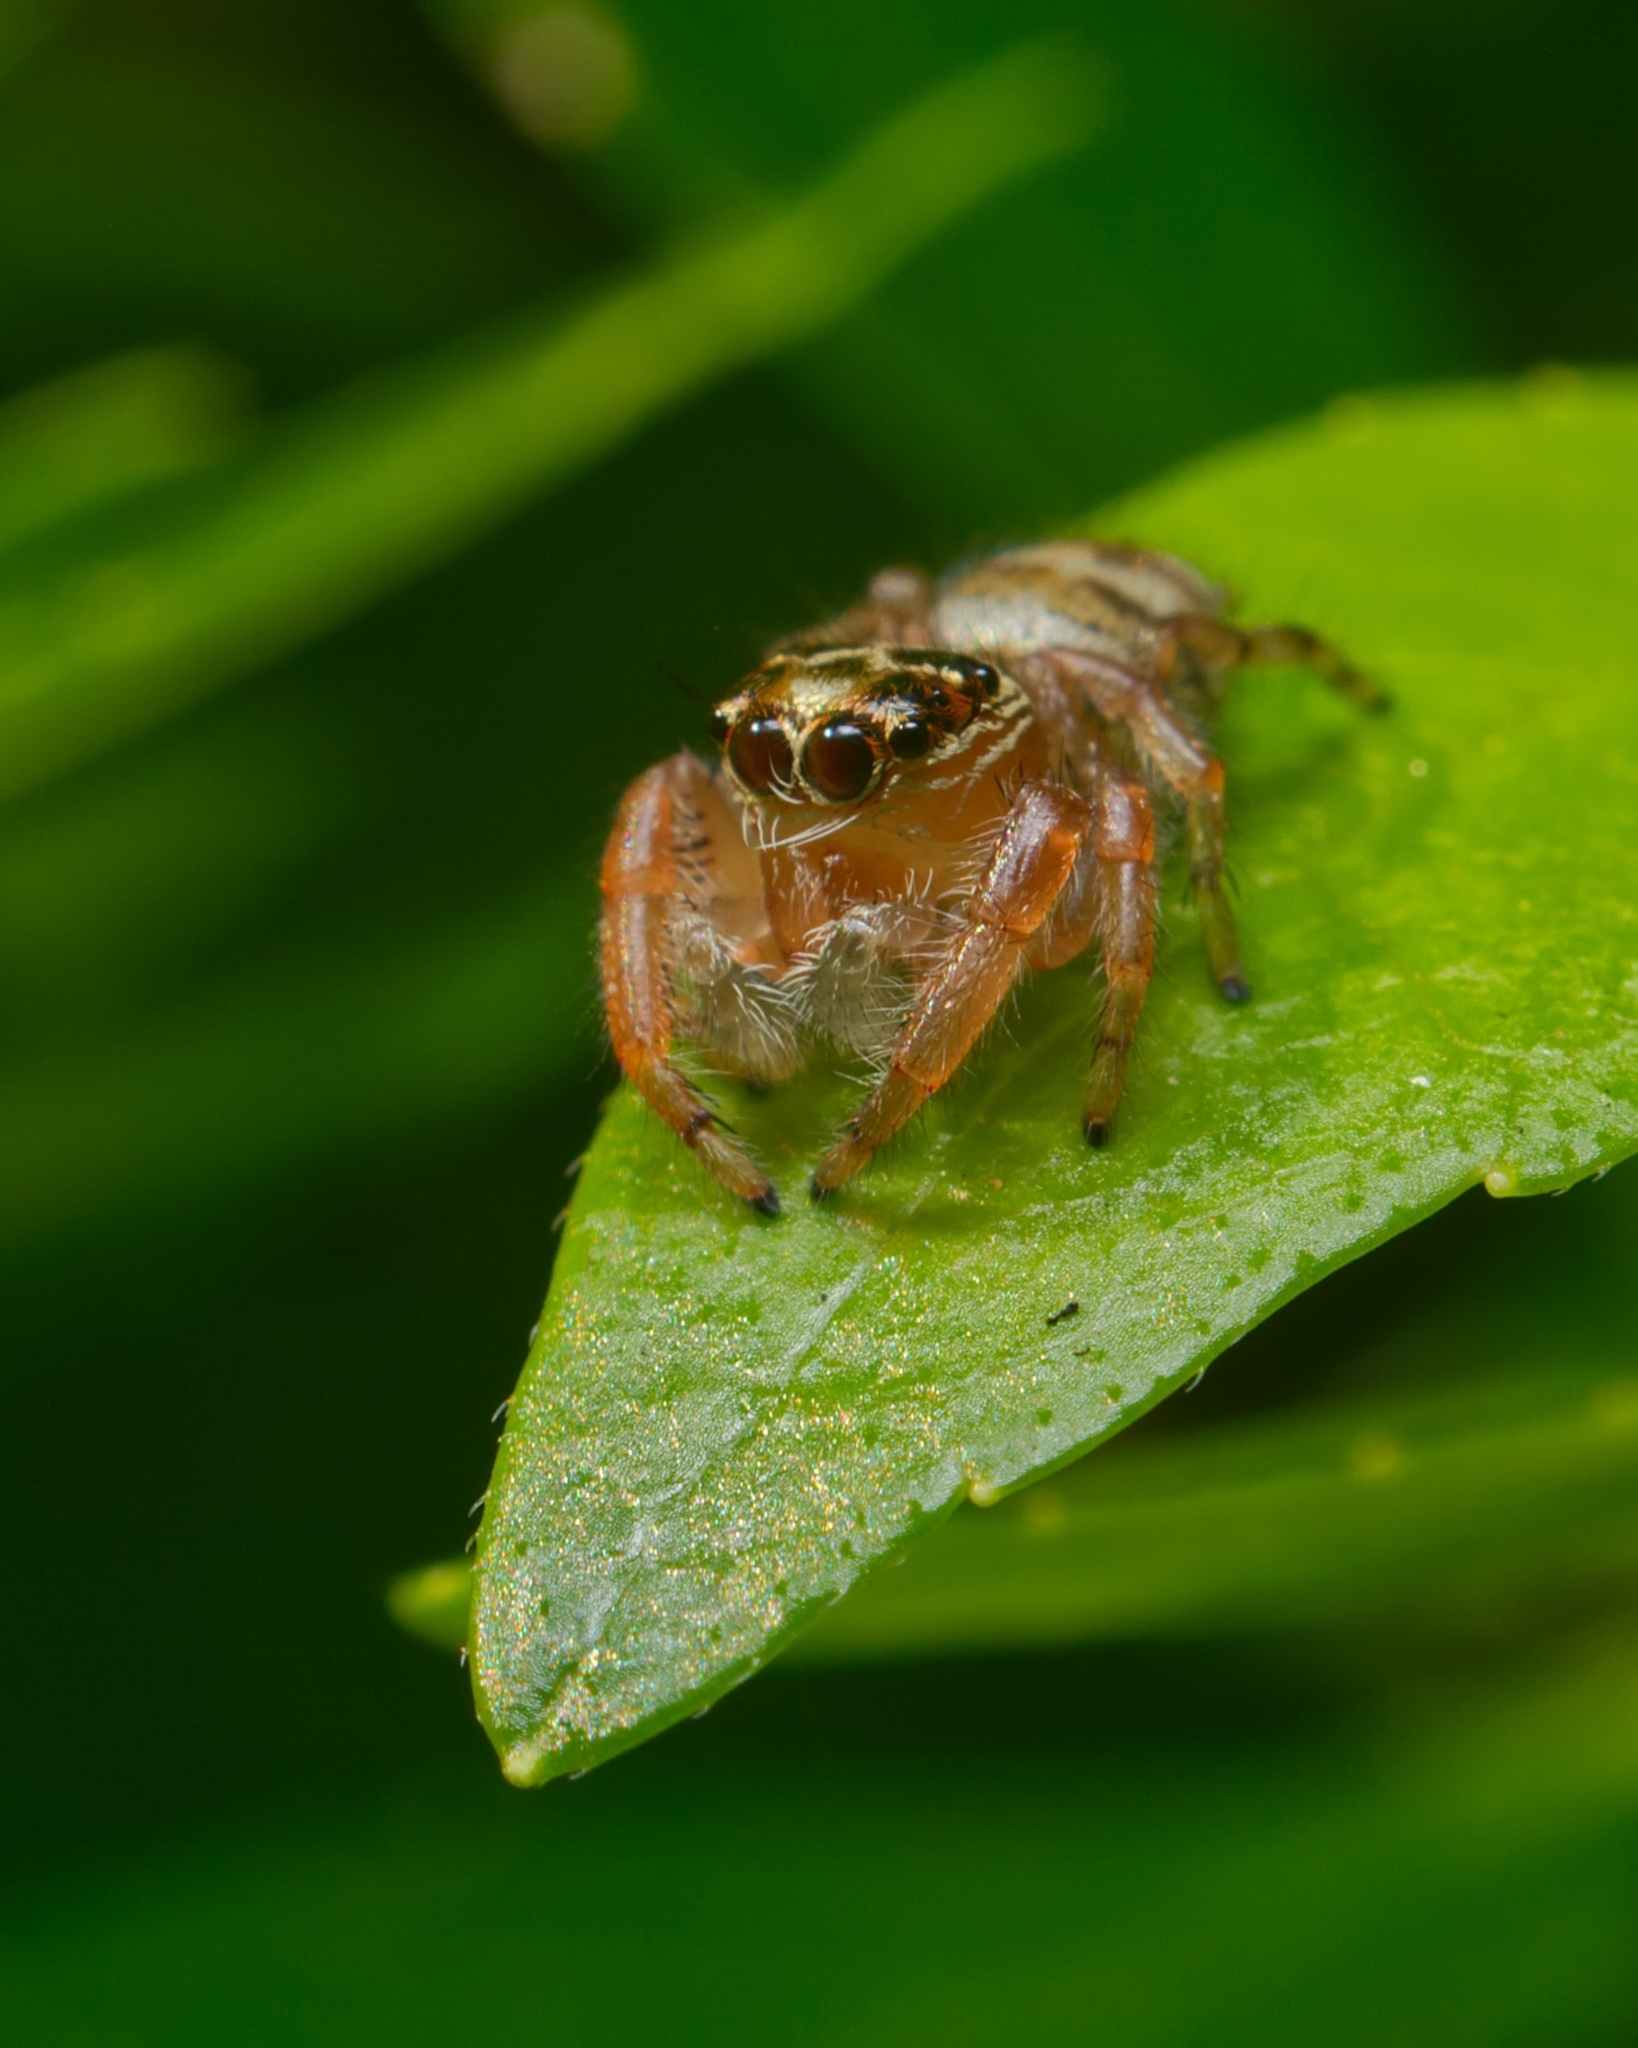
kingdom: Animalia
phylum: Arthropoda
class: Arachnida
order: Araneae
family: Salticidae
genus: Thyene
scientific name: Thyene natalii
